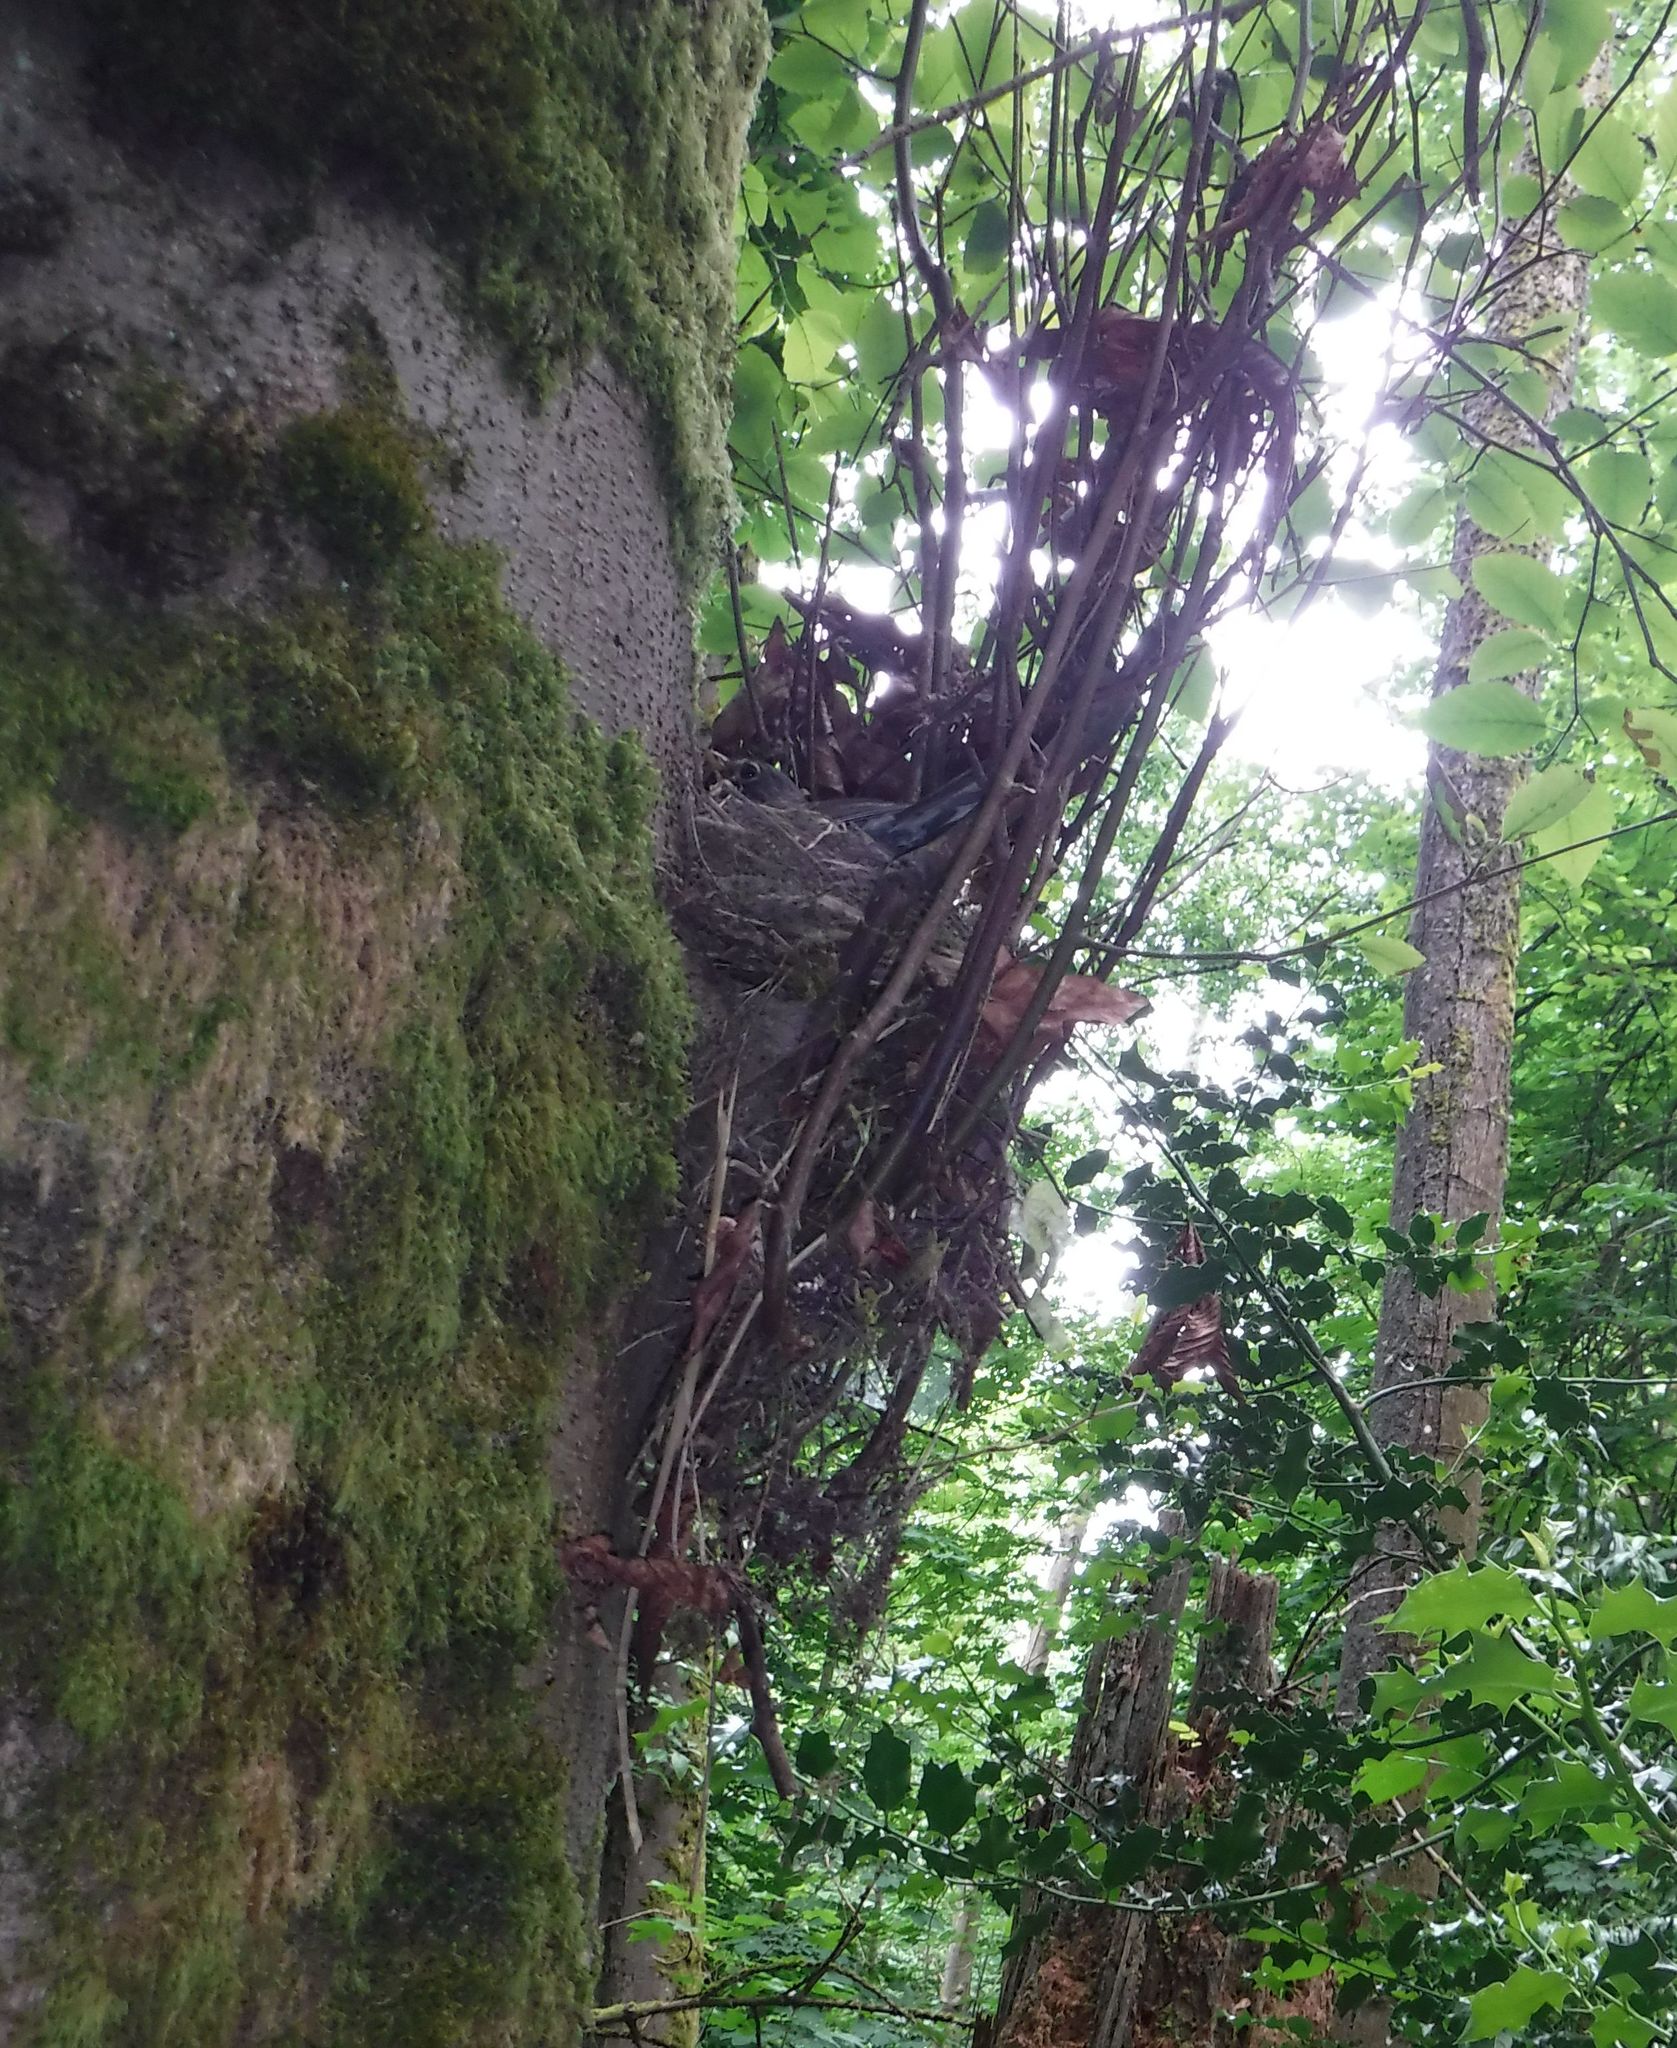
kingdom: Animalia
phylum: Chordata
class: Aves
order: Passeriformes
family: Turdidae
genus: Turdus
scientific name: Turdus migratorius
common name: American robin
